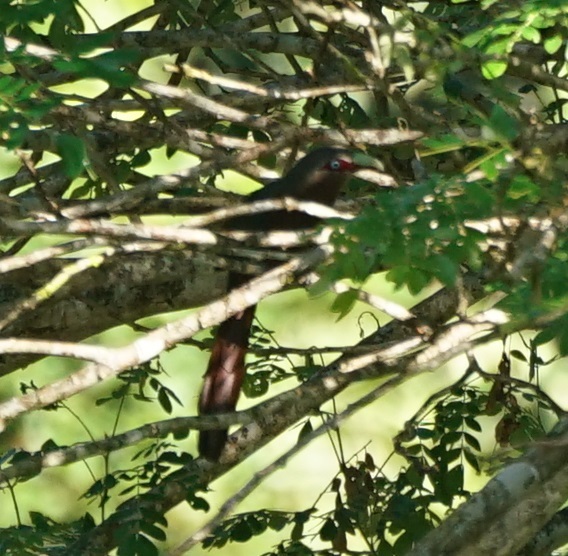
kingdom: Animalia
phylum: Chordata
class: Aves
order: Cuculiformes
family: Cuculidae
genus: Zanclostomus
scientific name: Zanclostomus curvirostris
